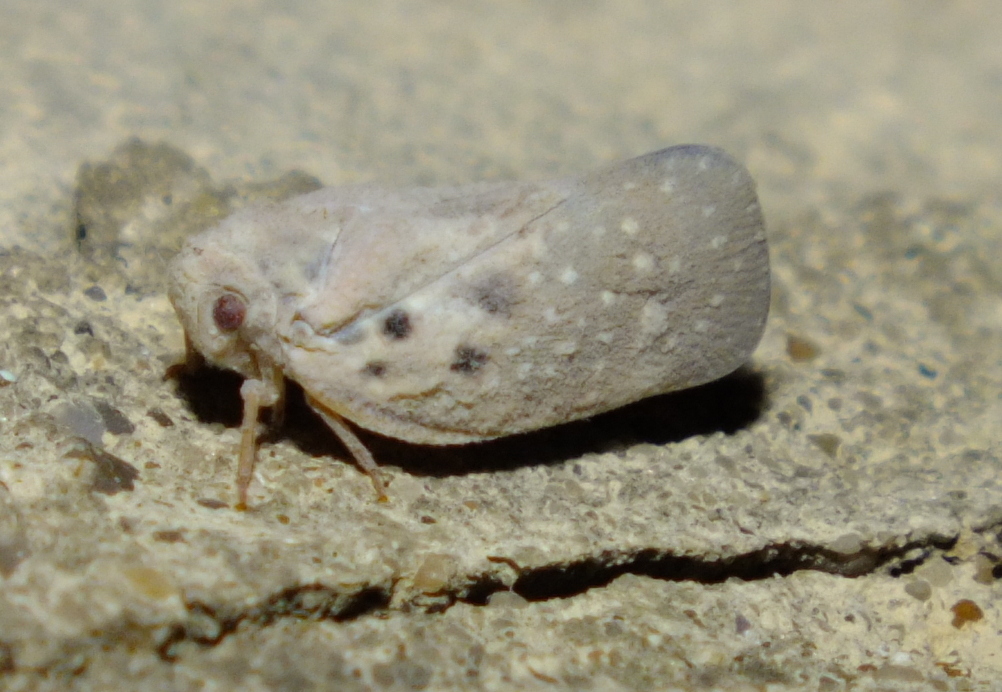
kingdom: Animalia
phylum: Arthropoda
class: Insecta
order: Hemiptera
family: Flatidae
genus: Metcalfa
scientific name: Metcalfa pruinosa
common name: Citrus flatid planthopper
